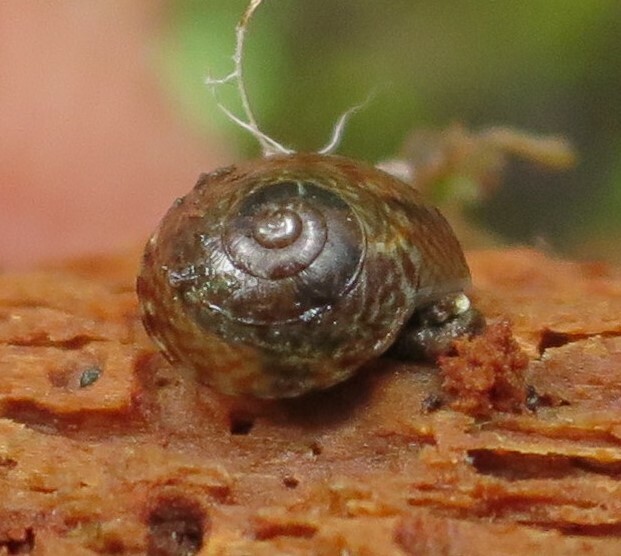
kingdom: Animalia
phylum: Mollusca
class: Gastropoda
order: Stylommatophora
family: Punctidae
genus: Laoma
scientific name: Laoma mariae
